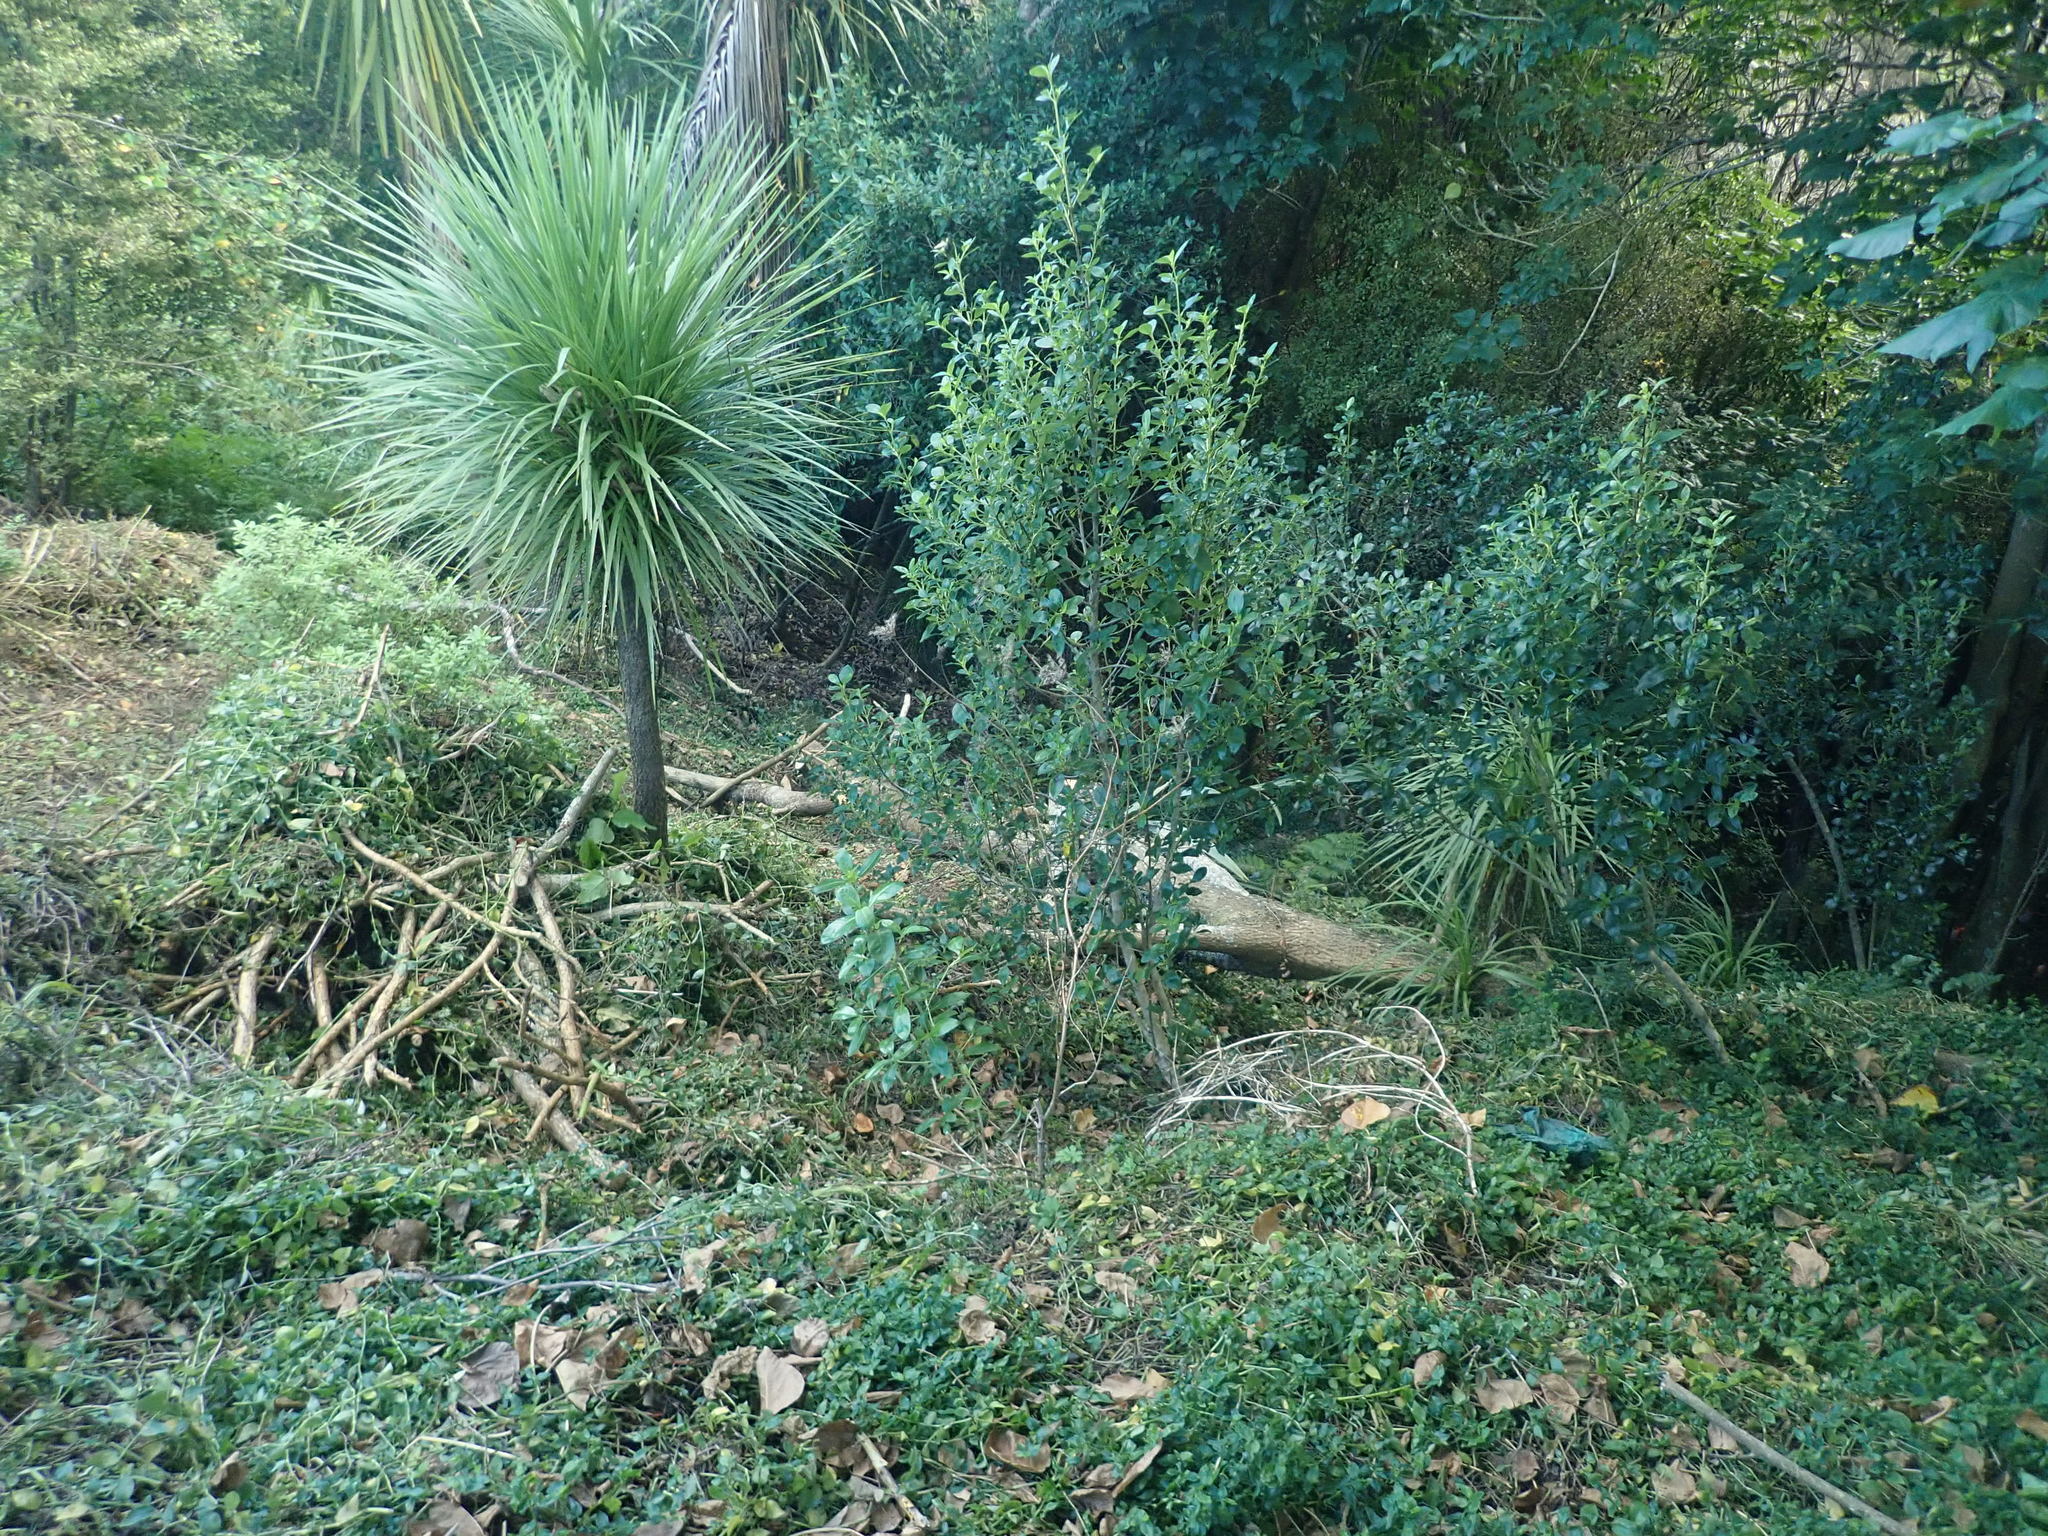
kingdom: Plantae
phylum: Tracheophyta
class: Liliopsida
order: Commelinales
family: Commelinaceae
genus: Tradescantia
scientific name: Tradescantia fluminensis
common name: Wandering-jew
